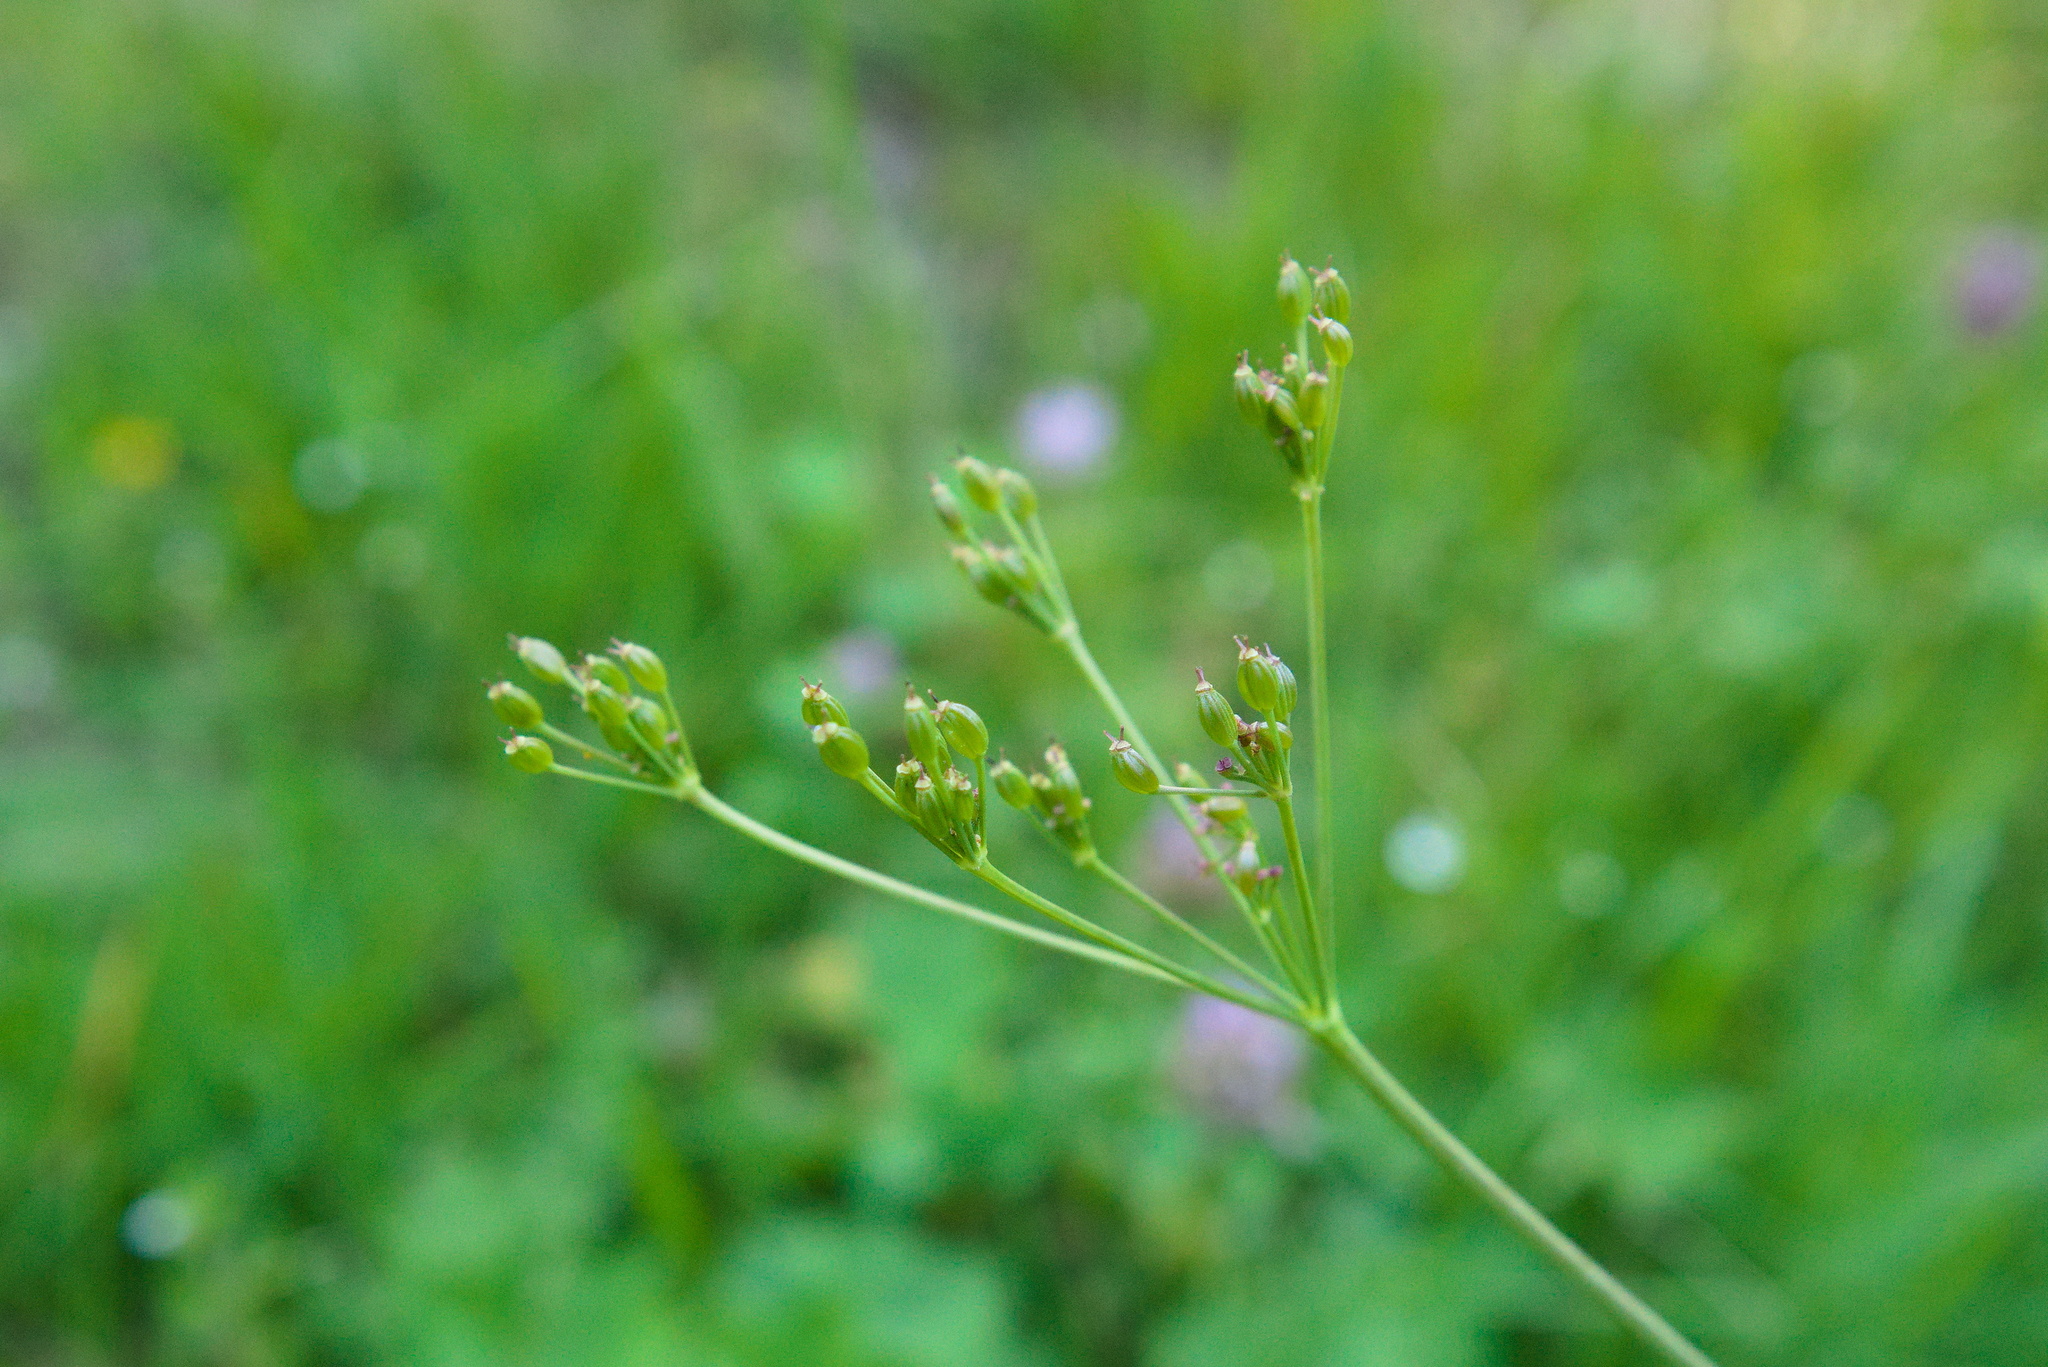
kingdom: Plantae
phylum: Tracheophyta
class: Magnoliopsida
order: Apiales
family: Apiaceae
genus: Carum
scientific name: Carum carvi
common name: Caraway
